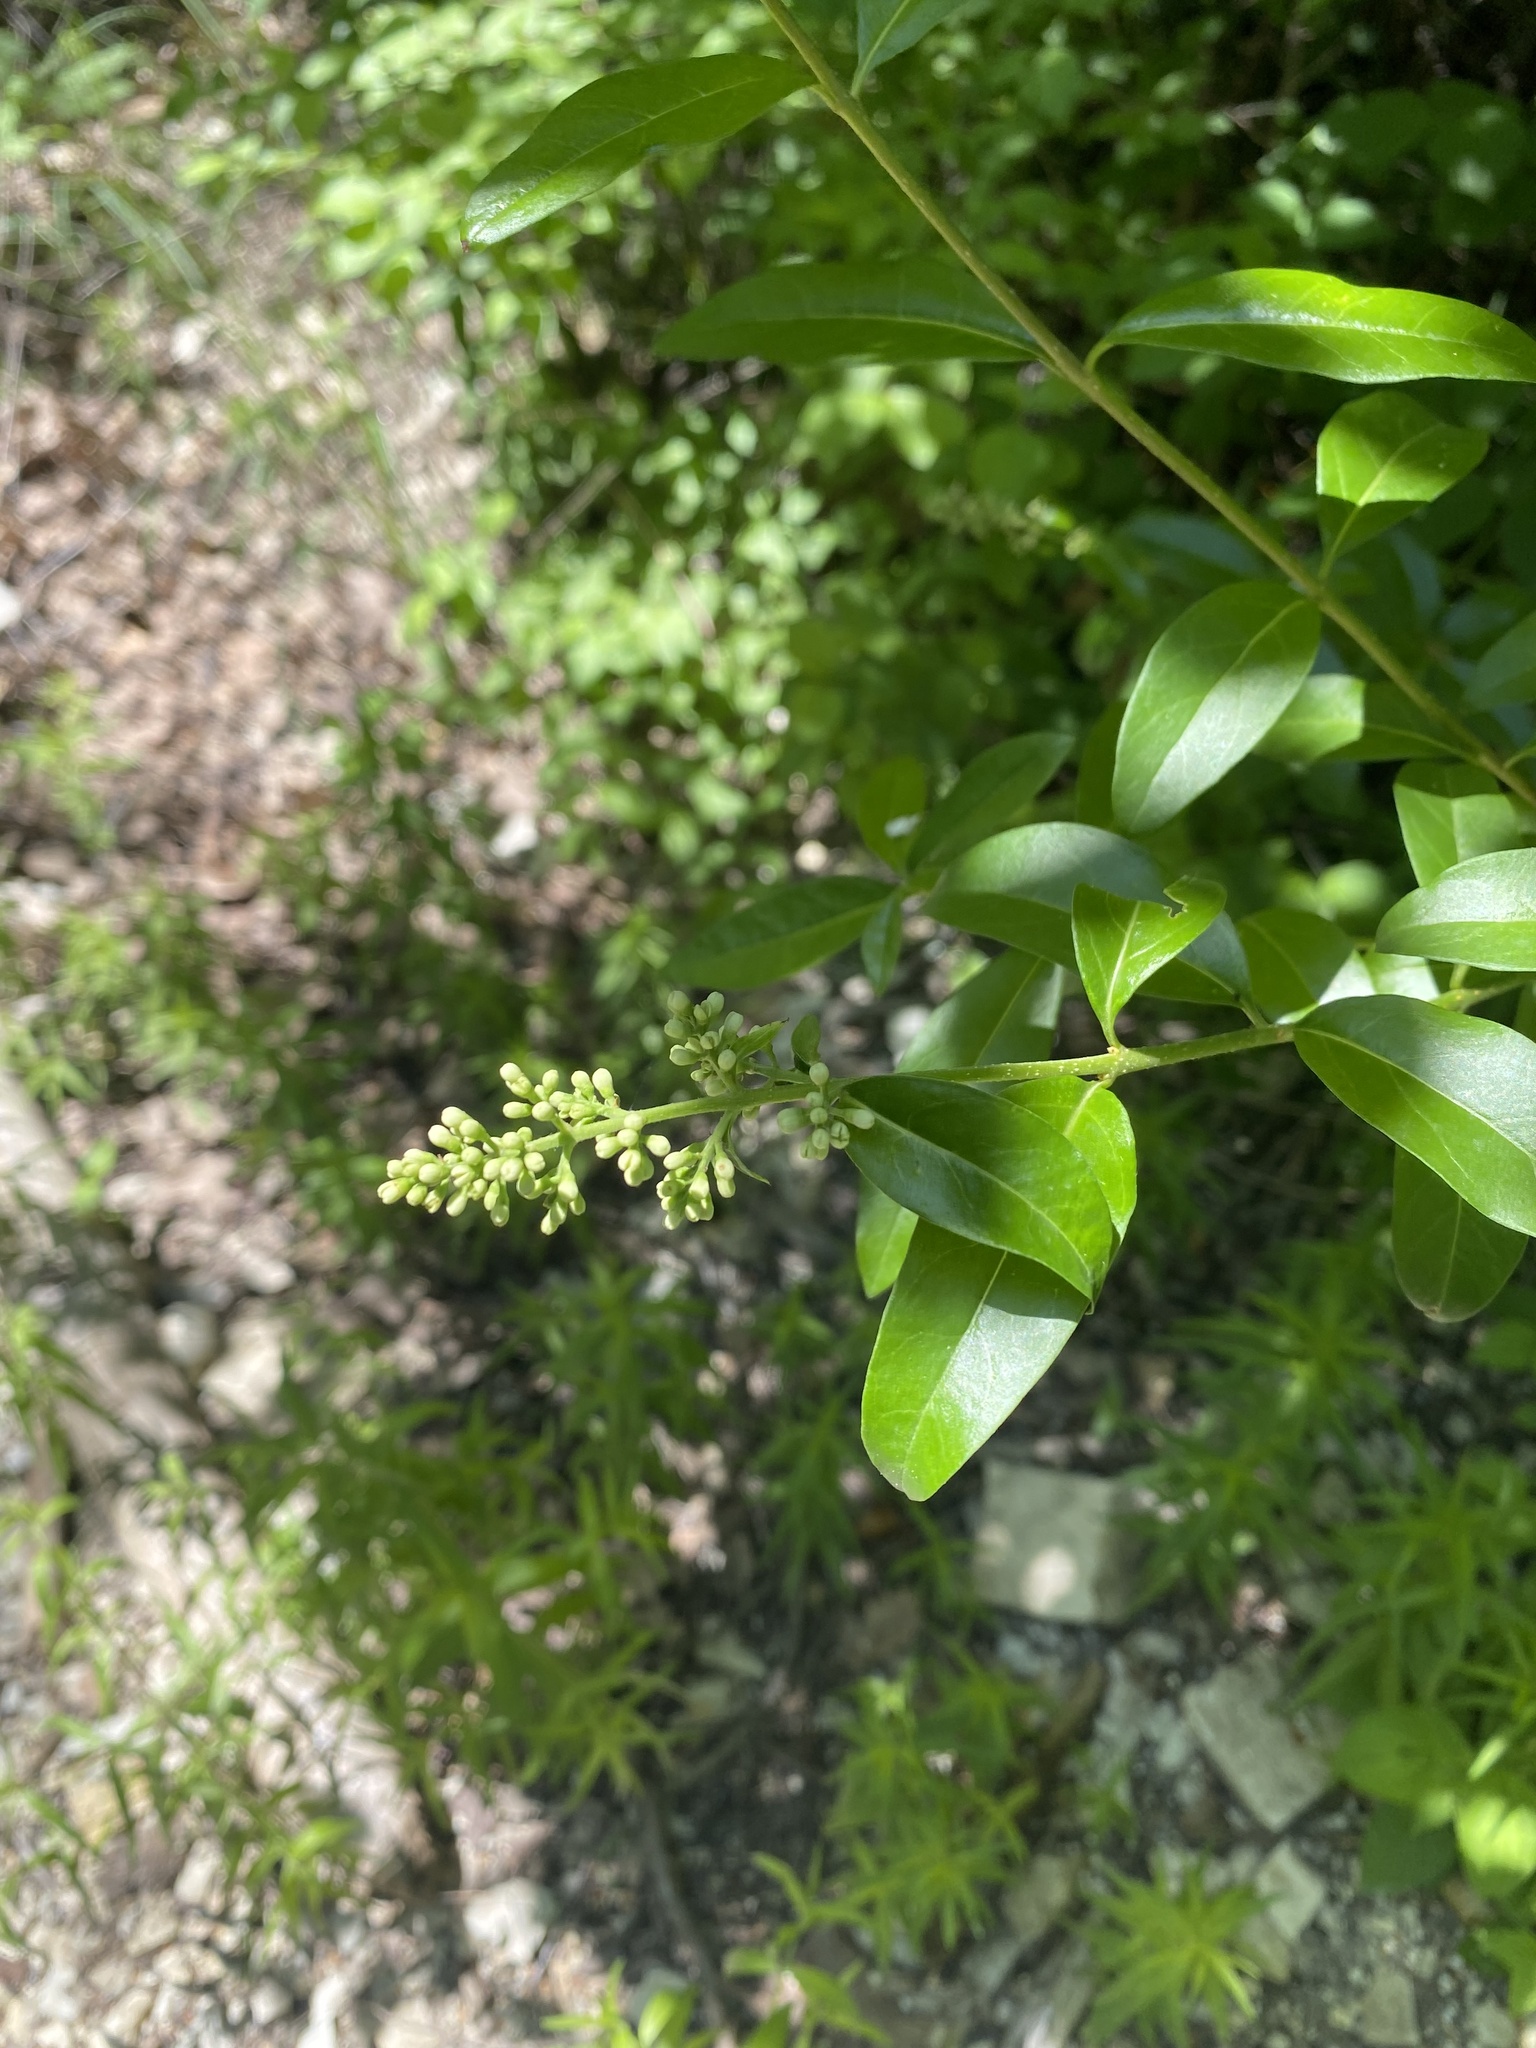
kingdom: Plantae
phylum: Tracheophyta
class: Magnoliopsida
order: Lamiales
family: Oleaceae
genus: Ligustrum
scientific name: Ligustrum vulgare
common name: Wild privet
